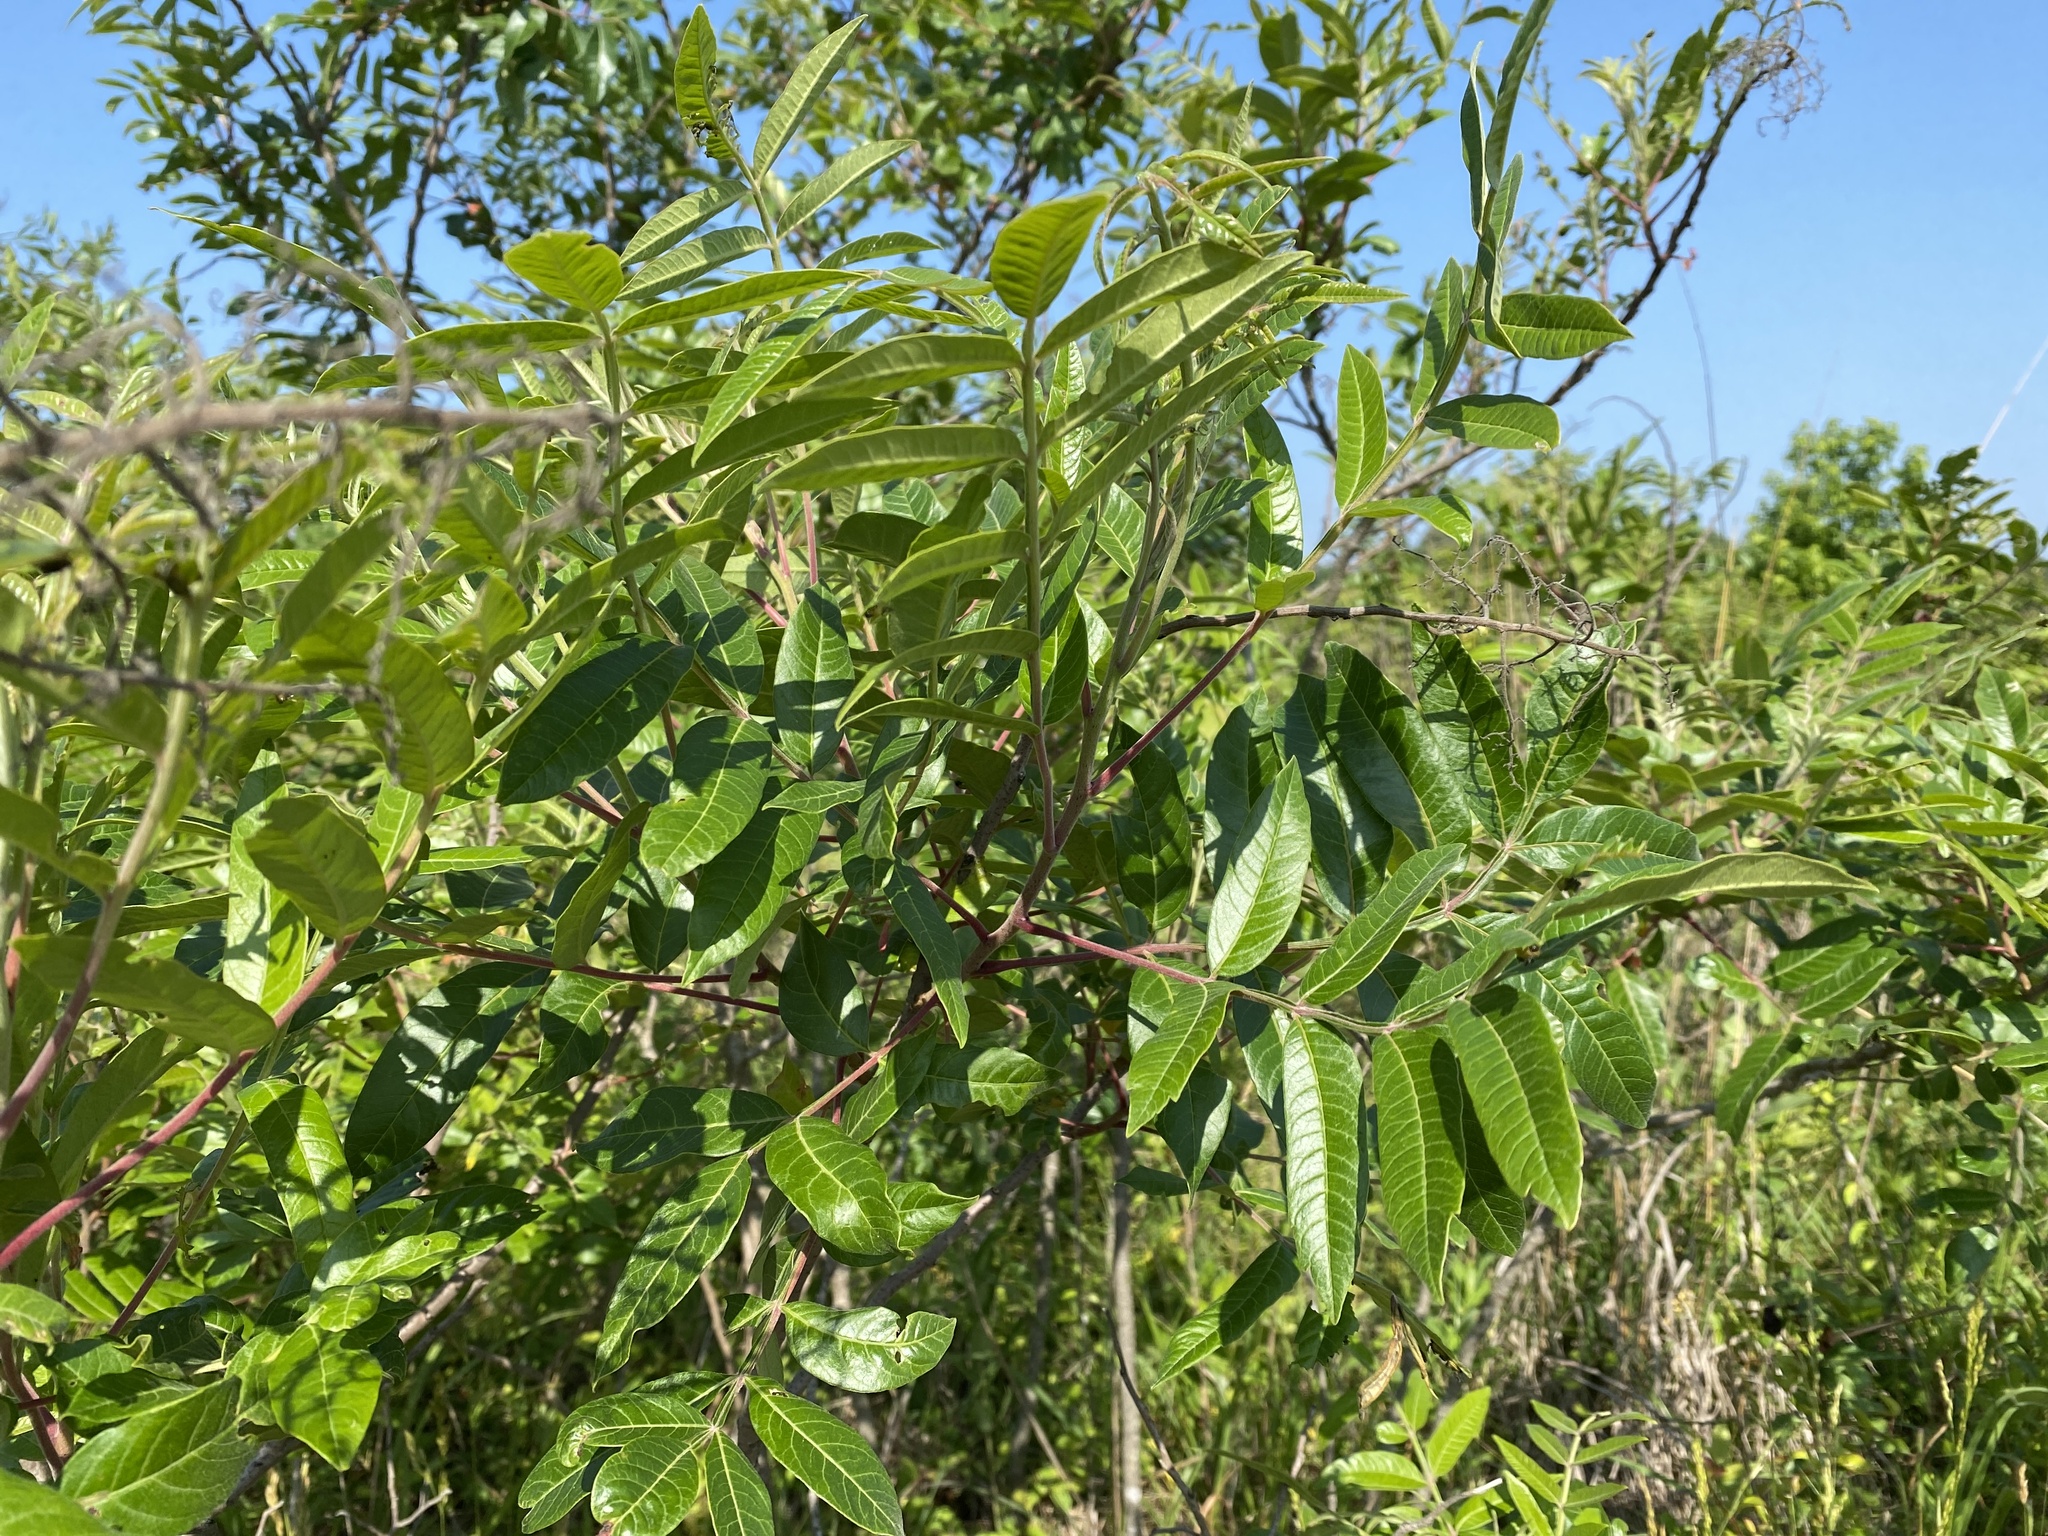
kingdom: Plantae
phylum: Tracheophyta
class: Magnoliopsida
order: Sapindales
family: Anacardiaceae
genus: Rhus
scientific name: Rhus copallina
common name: Shining sumac
